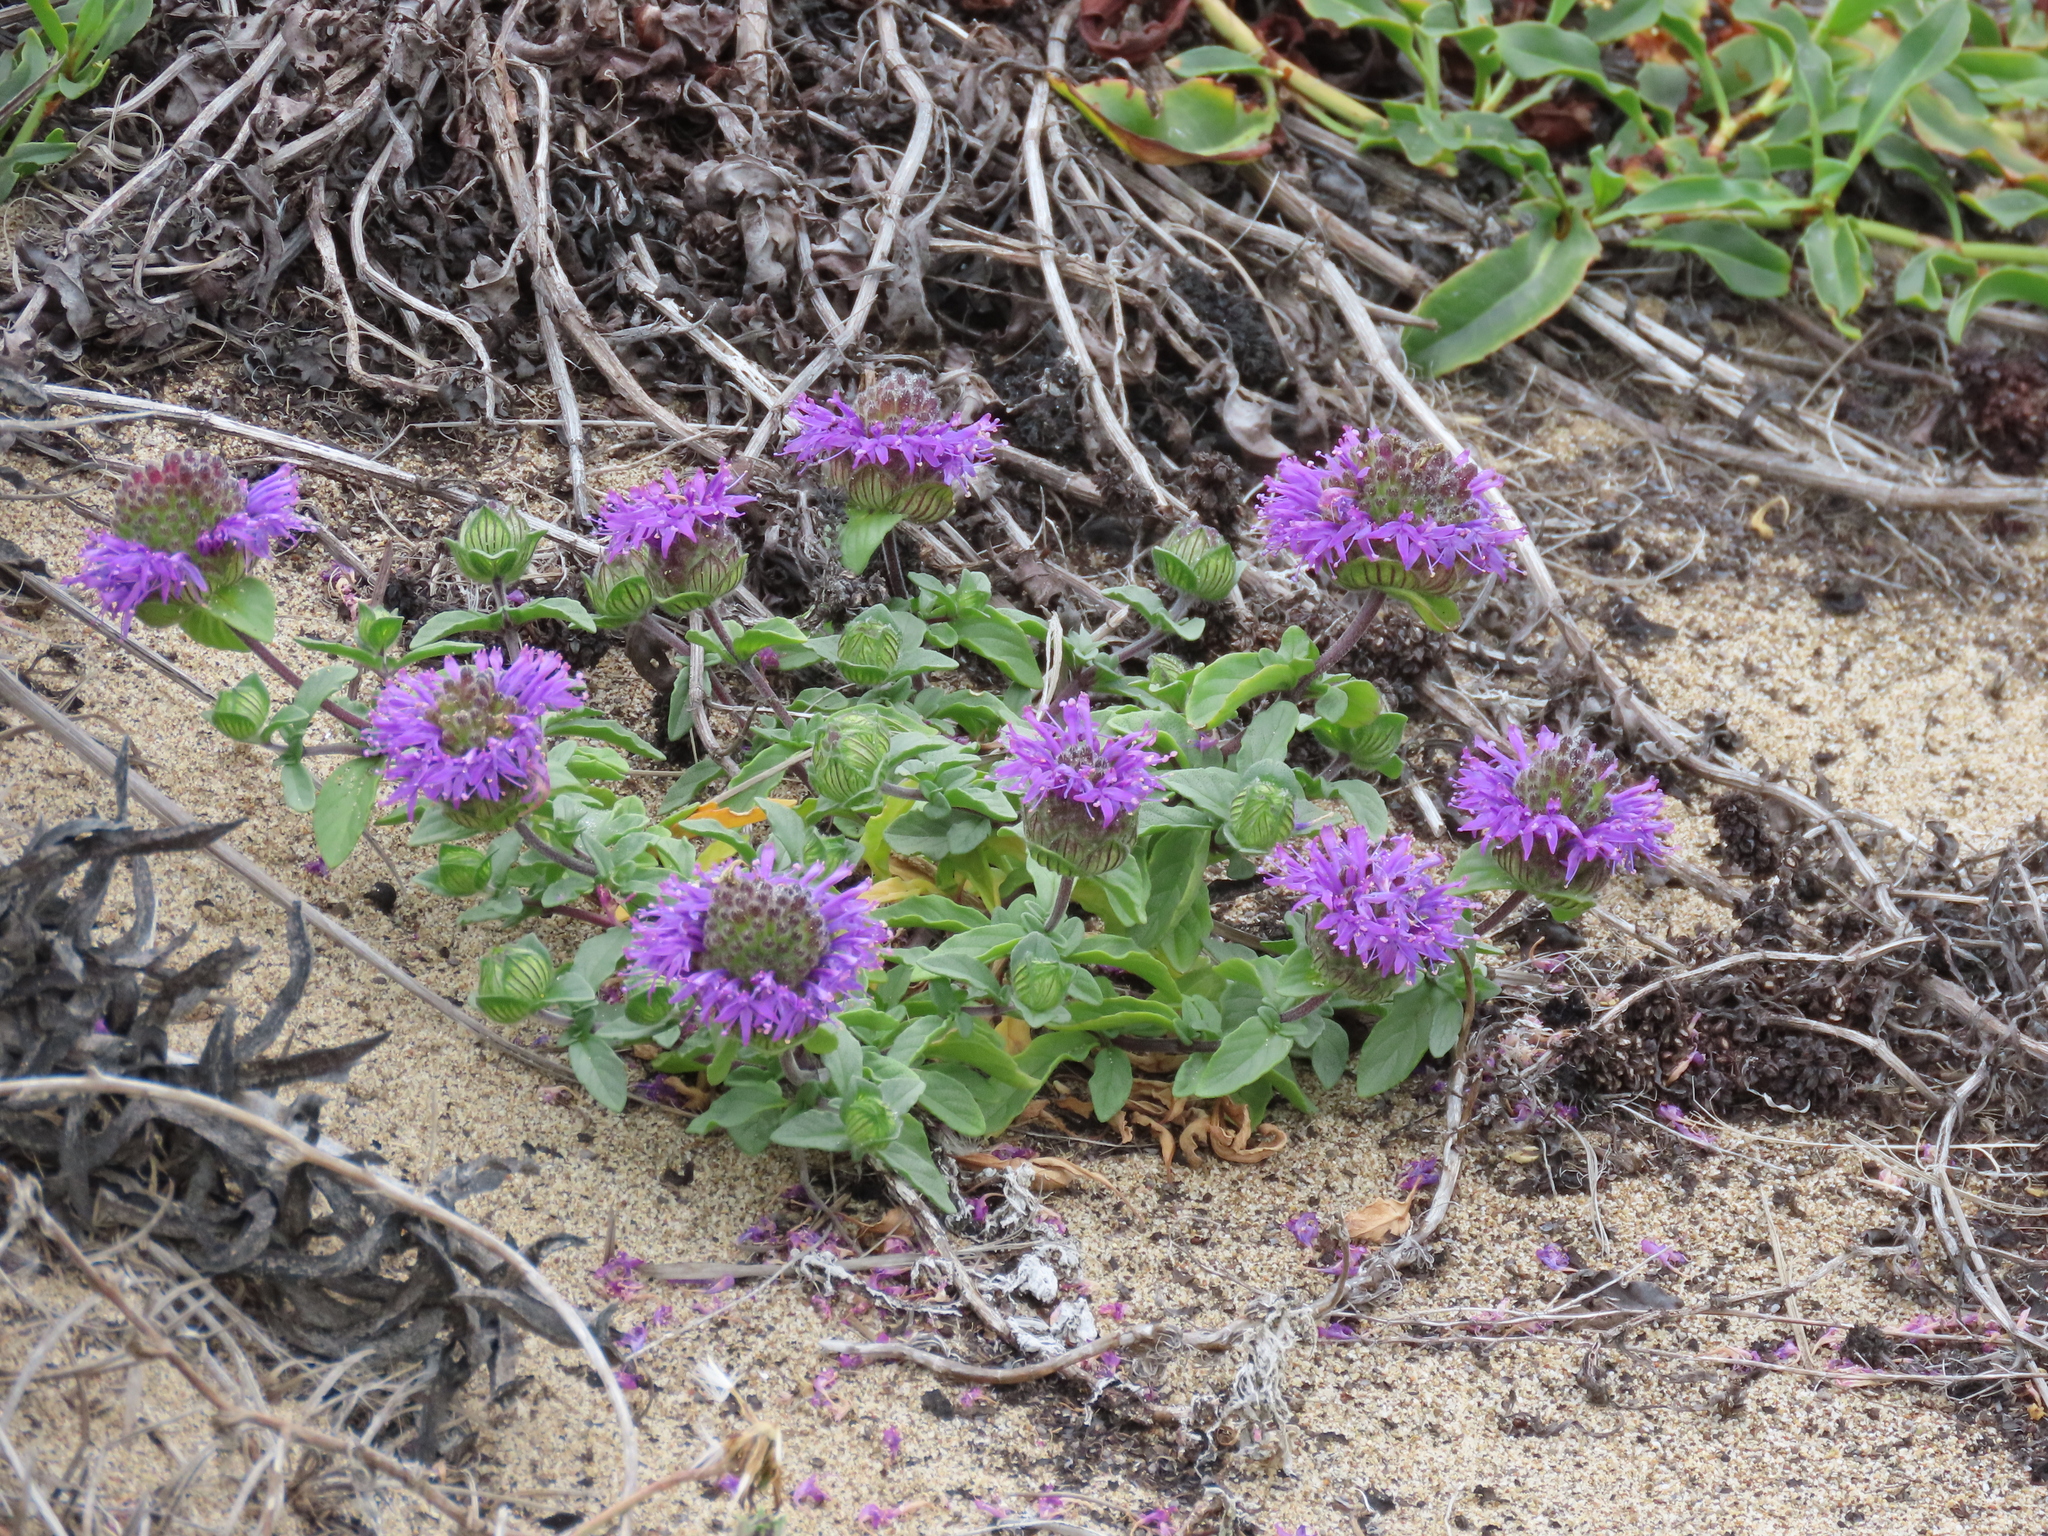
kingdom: Plantae
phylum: Tracheophyta
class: Magnoliopsida
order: Lamiales
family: Lamiaceae
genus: Monardella
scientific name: Monardella sinuata
